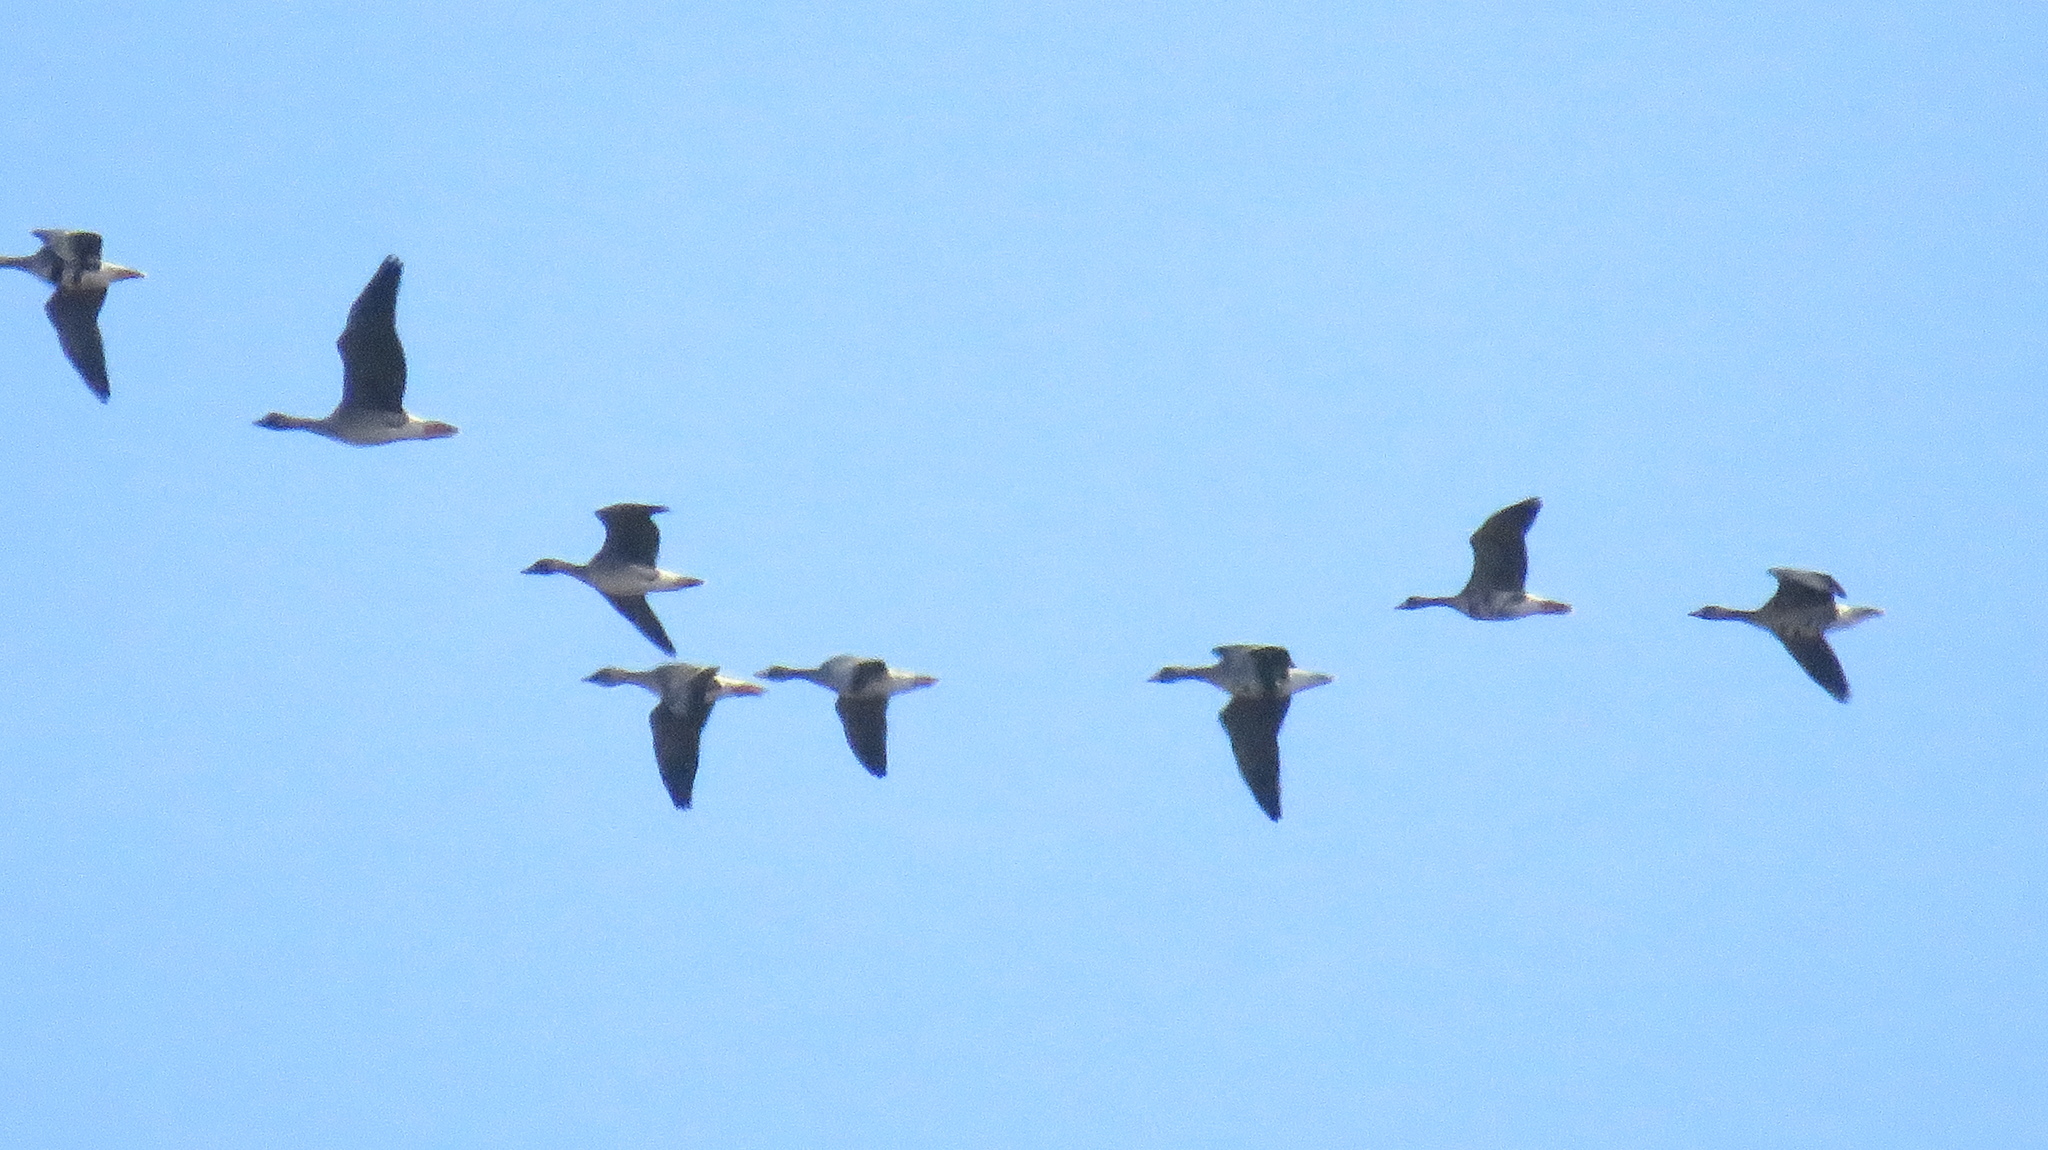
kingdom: Animalia
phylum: Chordata
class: Aves
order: Anseriformes
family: Anatidae
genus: Anser
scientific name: Anser albifrons
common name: Greater white-fronted goose
